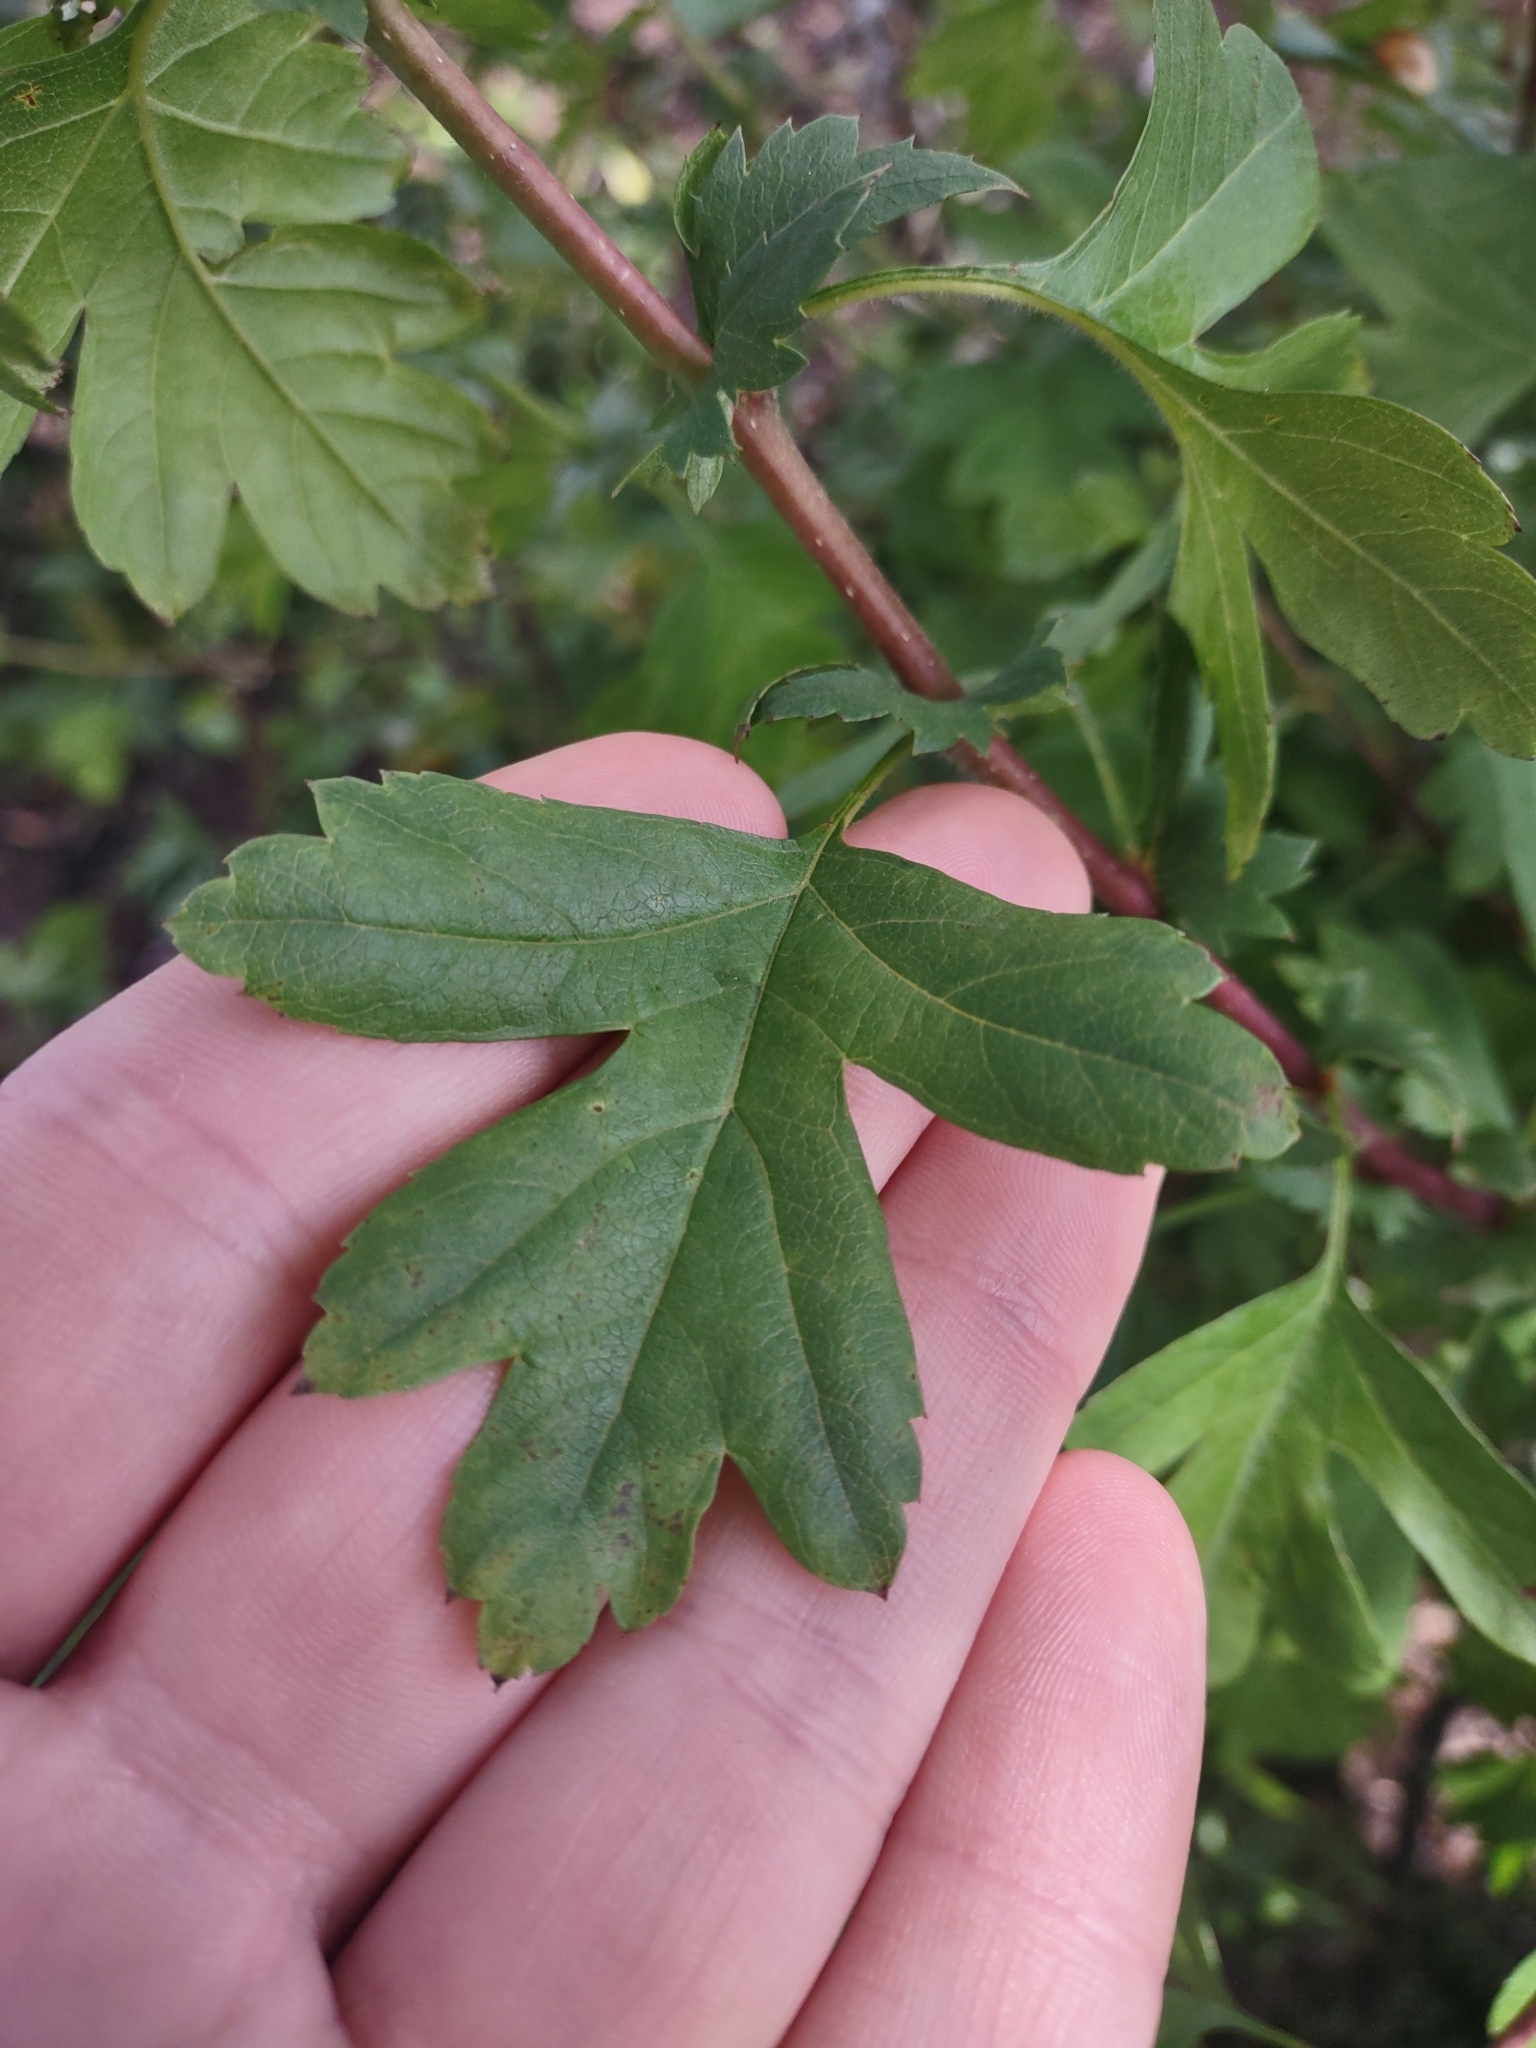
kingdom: Plantae
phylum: Tracheophyta
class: Magnoliopsida
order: Rosales
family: Rosaceae
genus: Crataegus
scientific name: Crataegus monogyna
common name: Hawthorn
